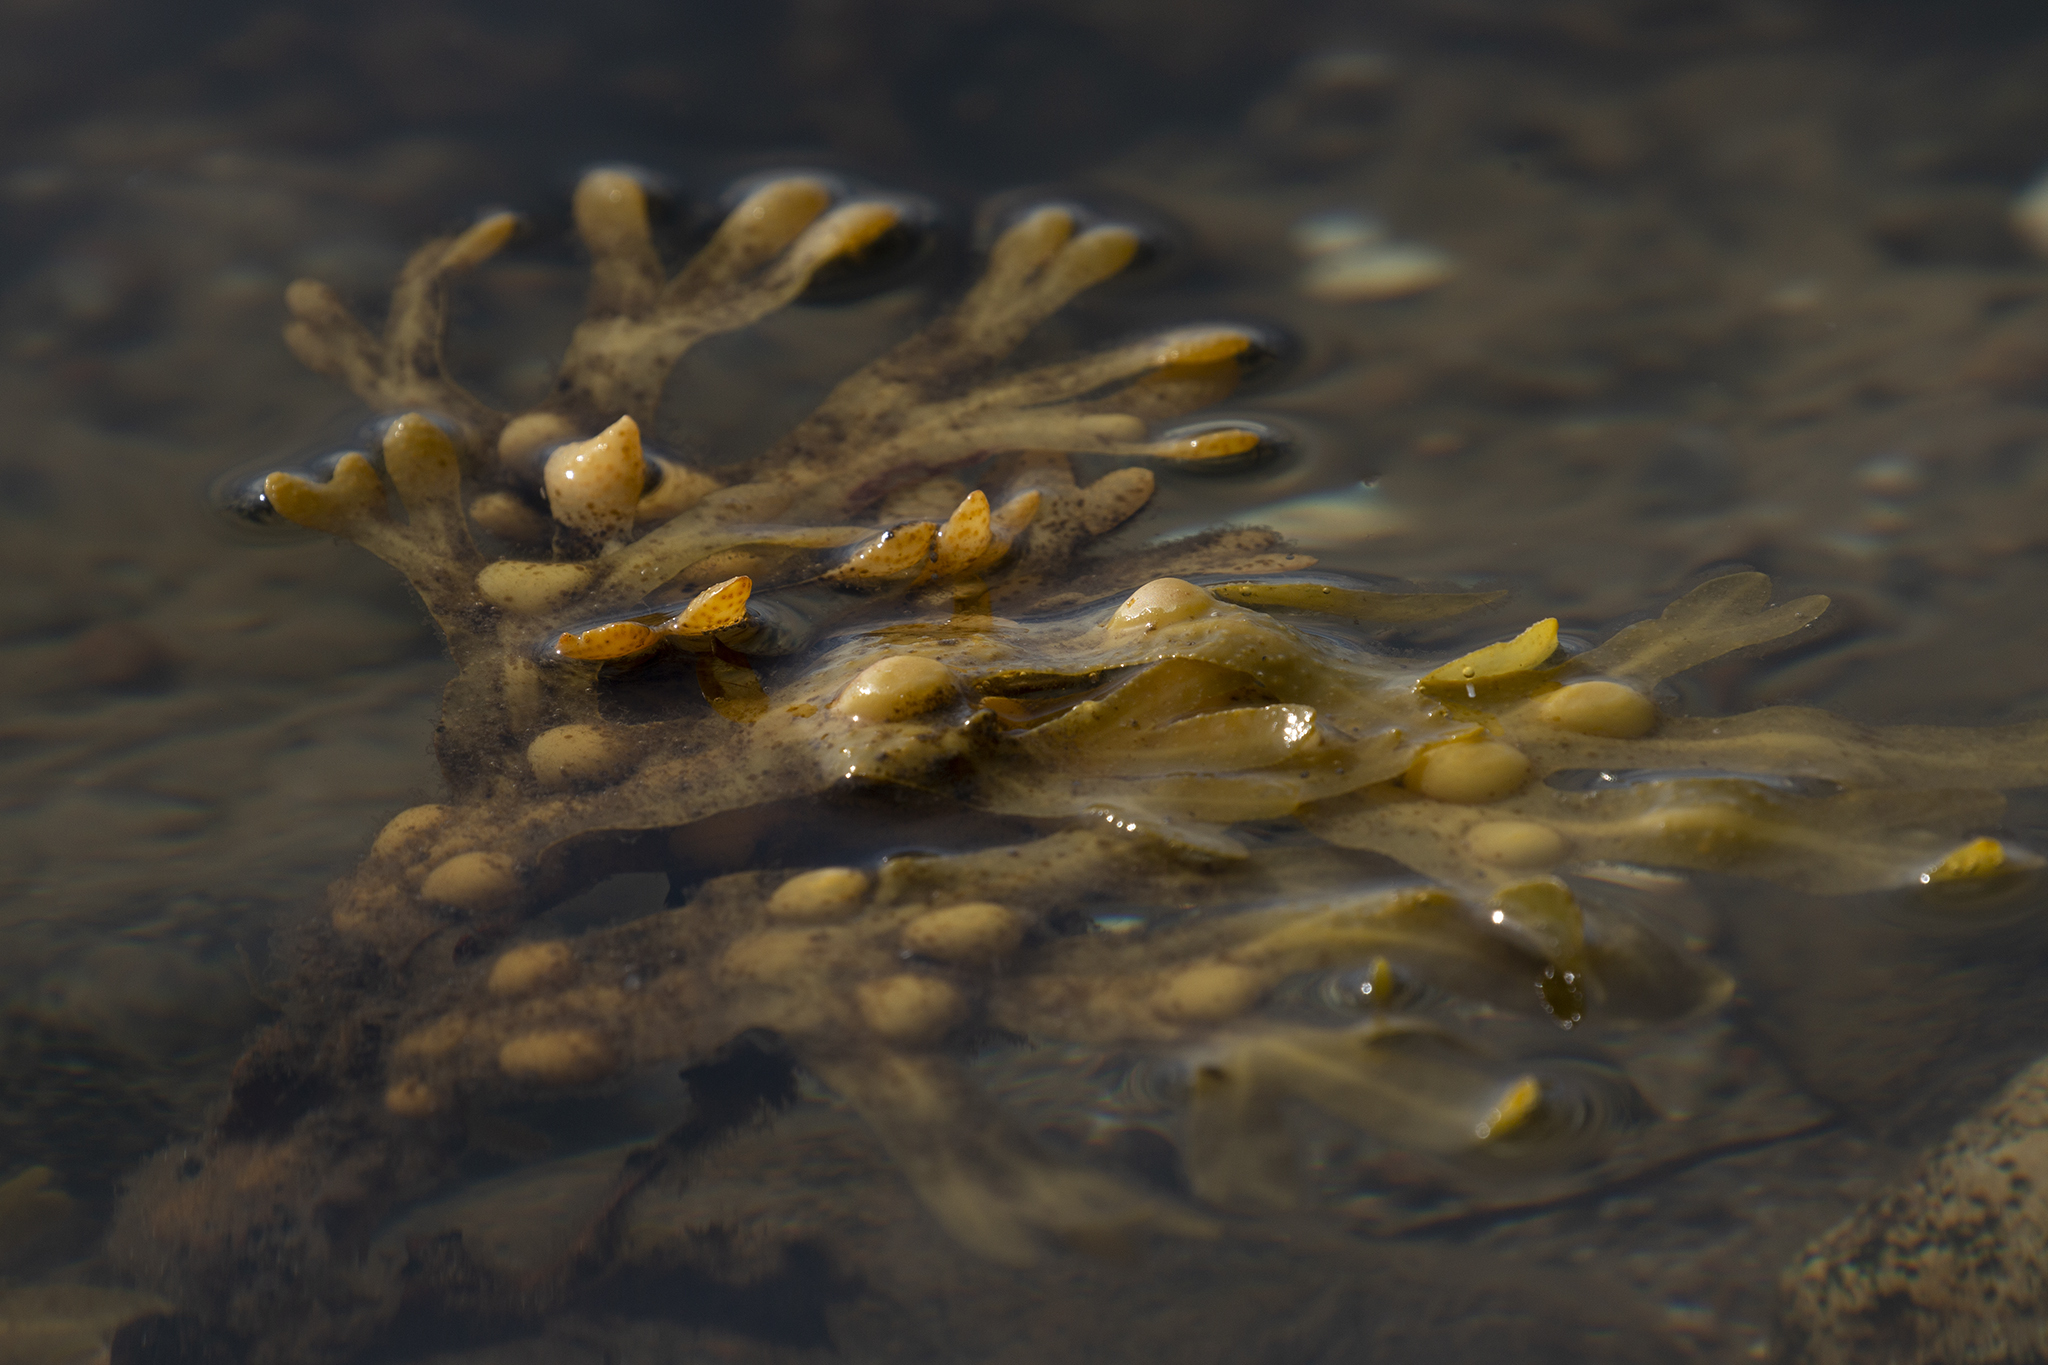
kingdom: Chromista
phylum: Ochrophyta
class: Phaeophyceae
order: Fucales
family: Fucaceae
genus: Fucus
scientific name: Fucus vesiculosus
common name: Bladder wrack
